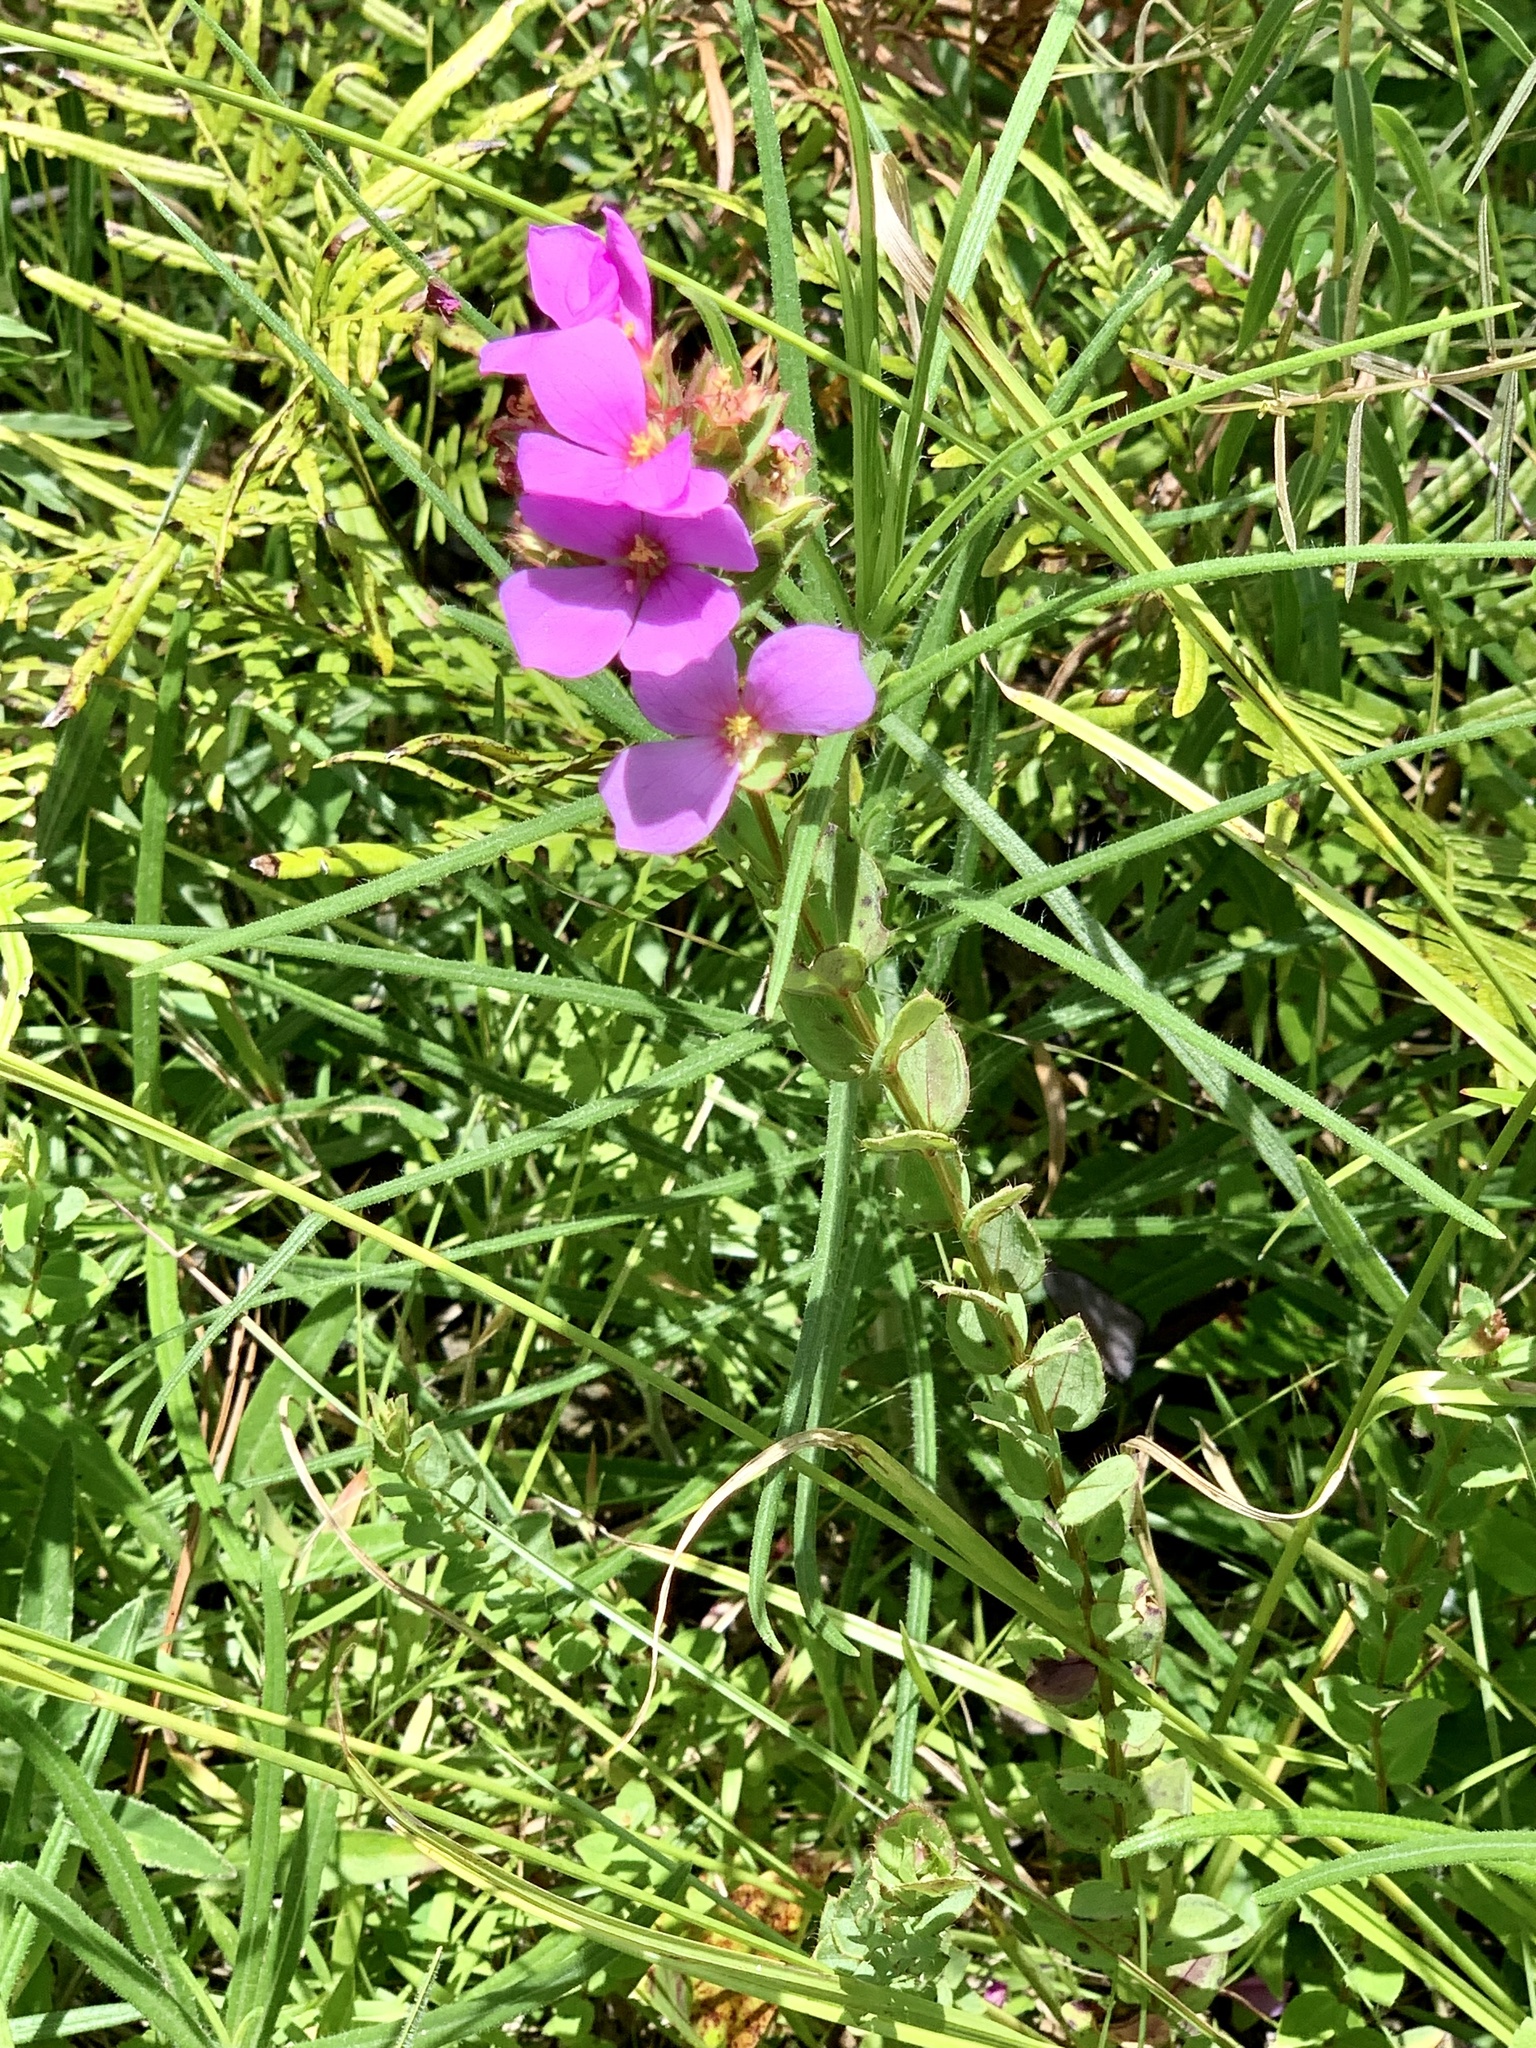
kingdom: Plantae
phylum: Tracheophyta
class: Magnoliopsida
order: Myrtales
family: Melastomataceae
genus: Rhexia
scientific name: Rhexia petiolata
